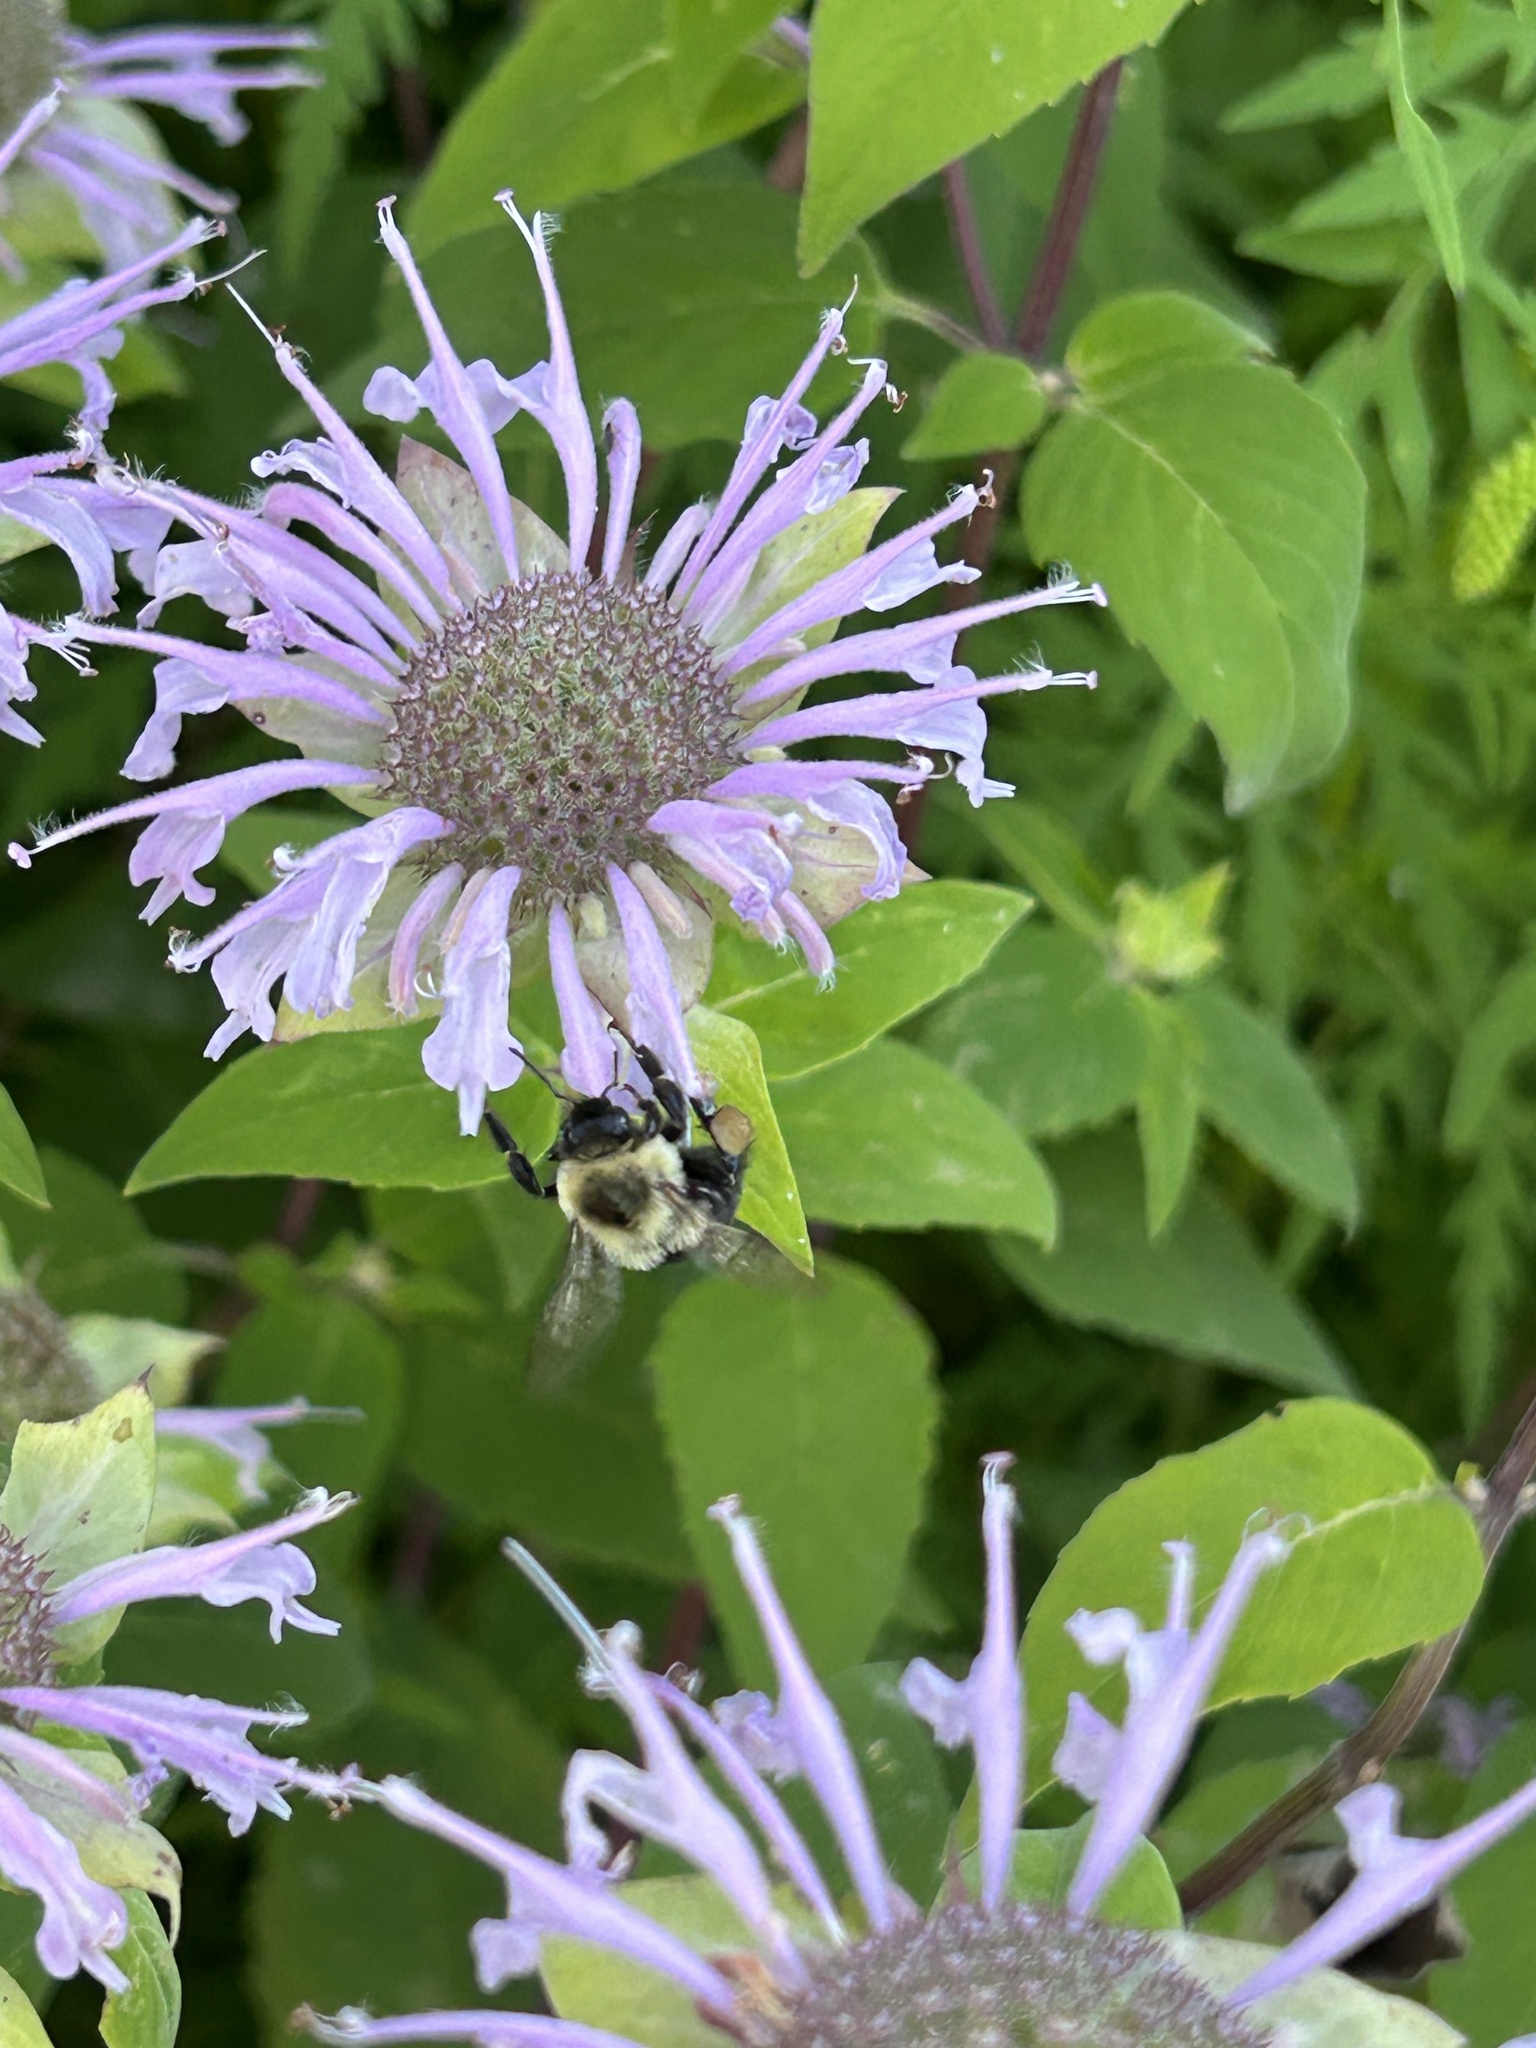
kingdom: Animalia
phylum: Arthropoda
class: Insecta
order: Hymenoptera
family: Apidae
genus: Bombus
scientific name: Bombus impatiens
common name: Common eastern bumble bee
